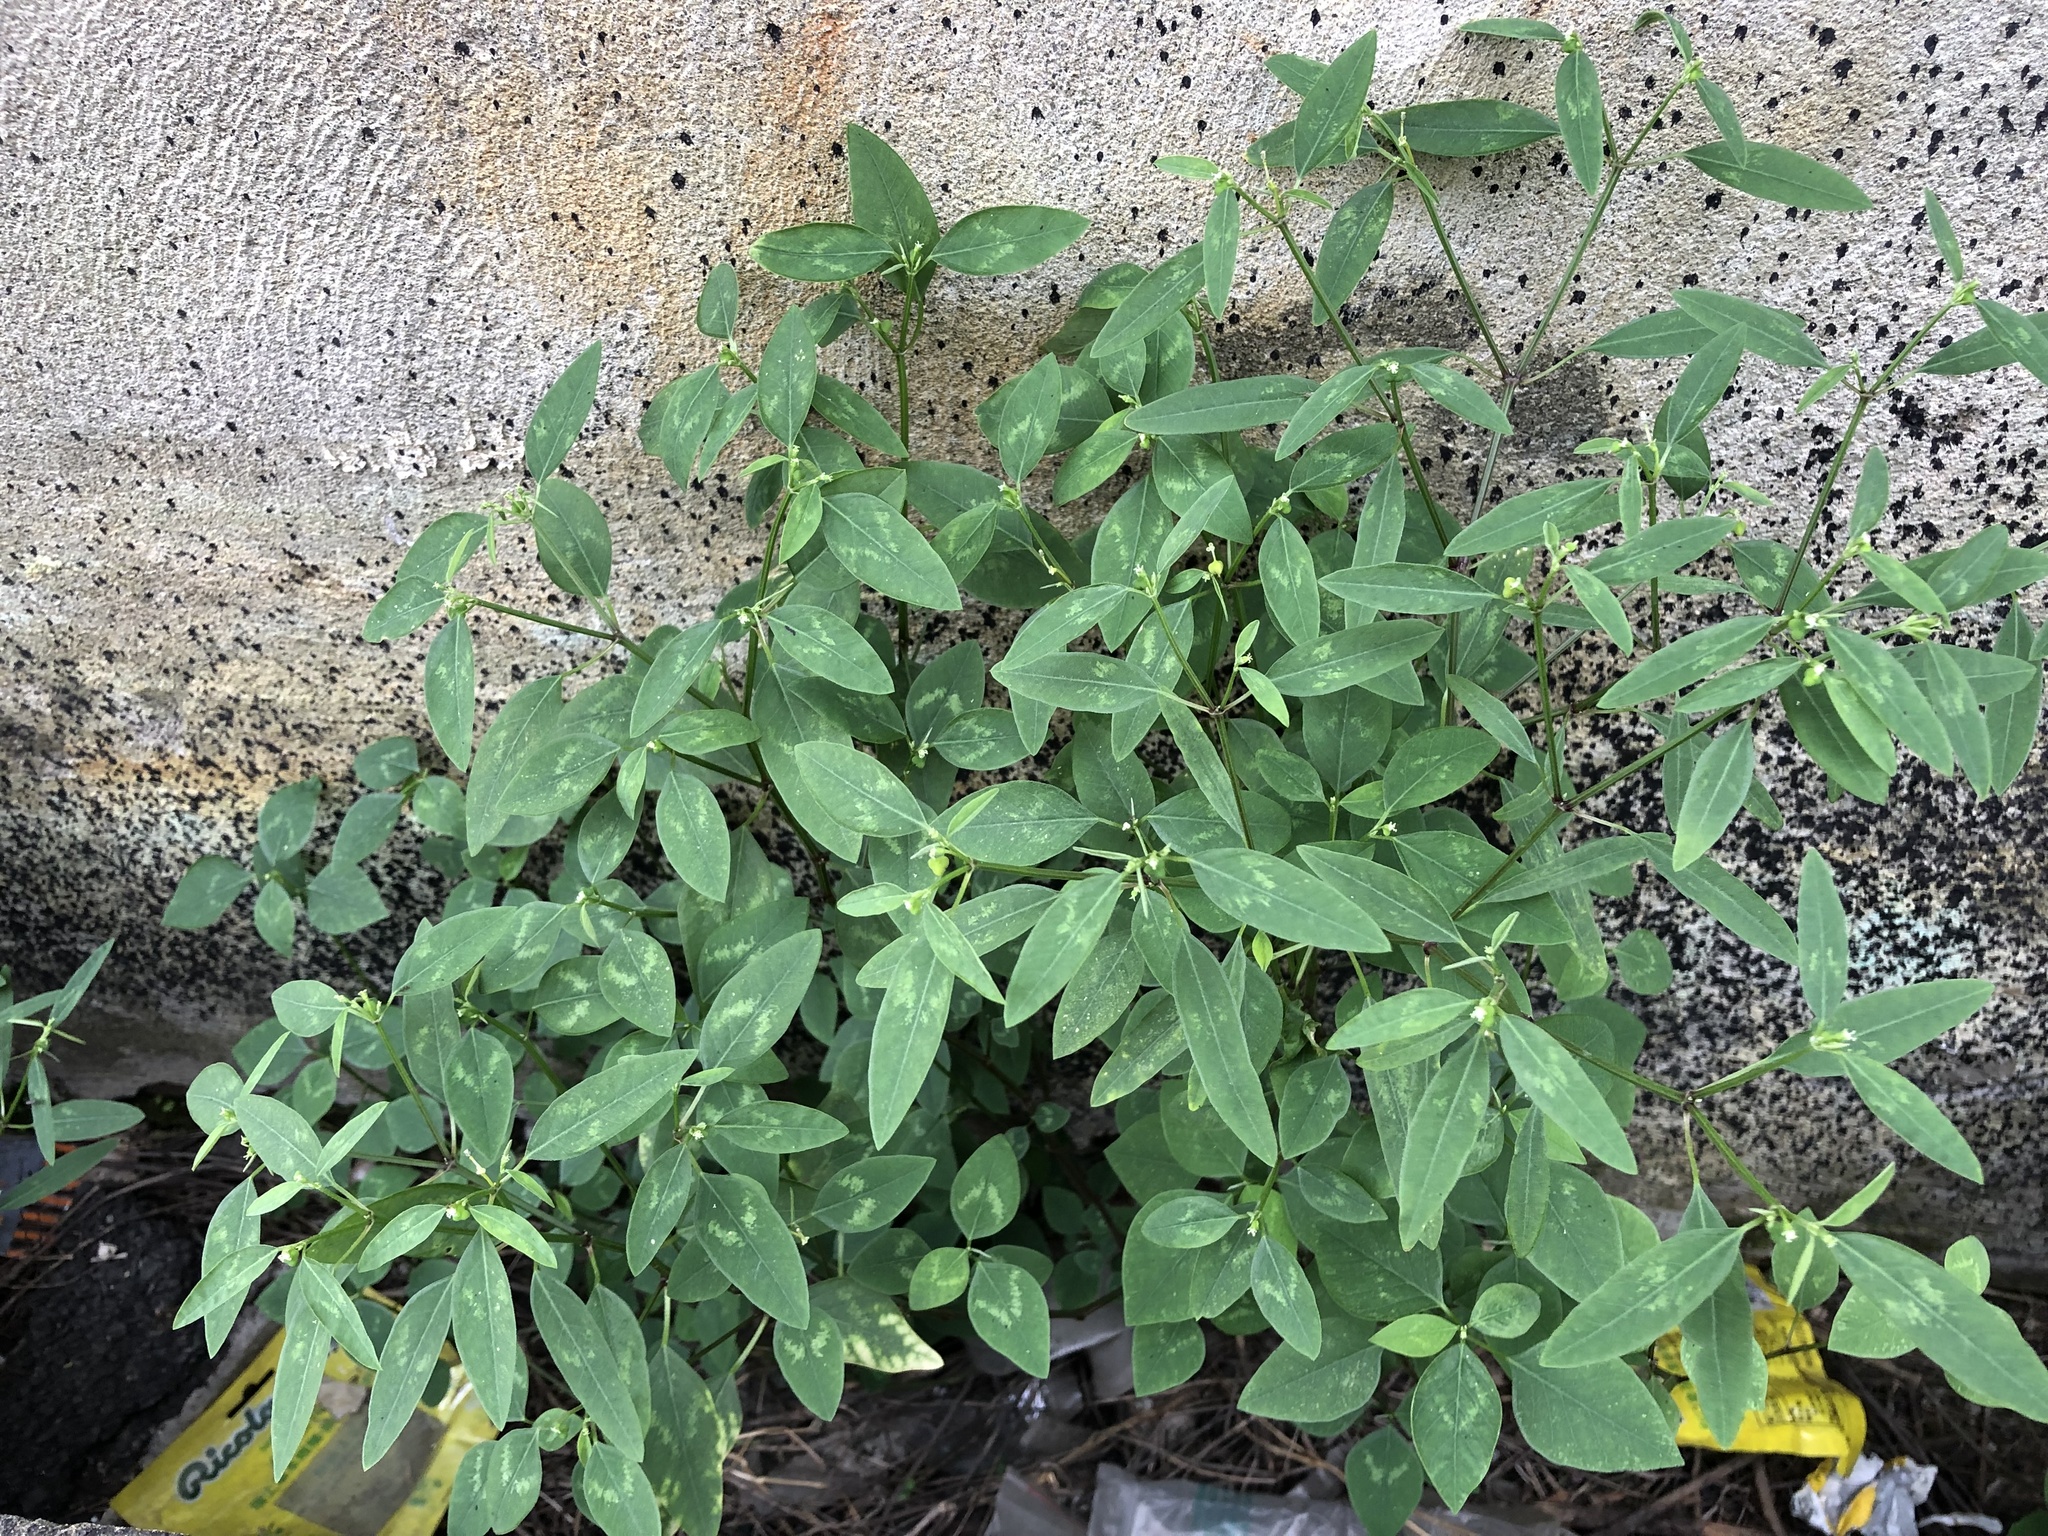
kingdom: Plantae
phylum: Tracheophyta
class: Magnoliopsida
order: Malpighiales
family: Euphorbiaceae
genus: Euphorbia
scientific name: Euphorbia graminea
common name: Grassleaf spurge
